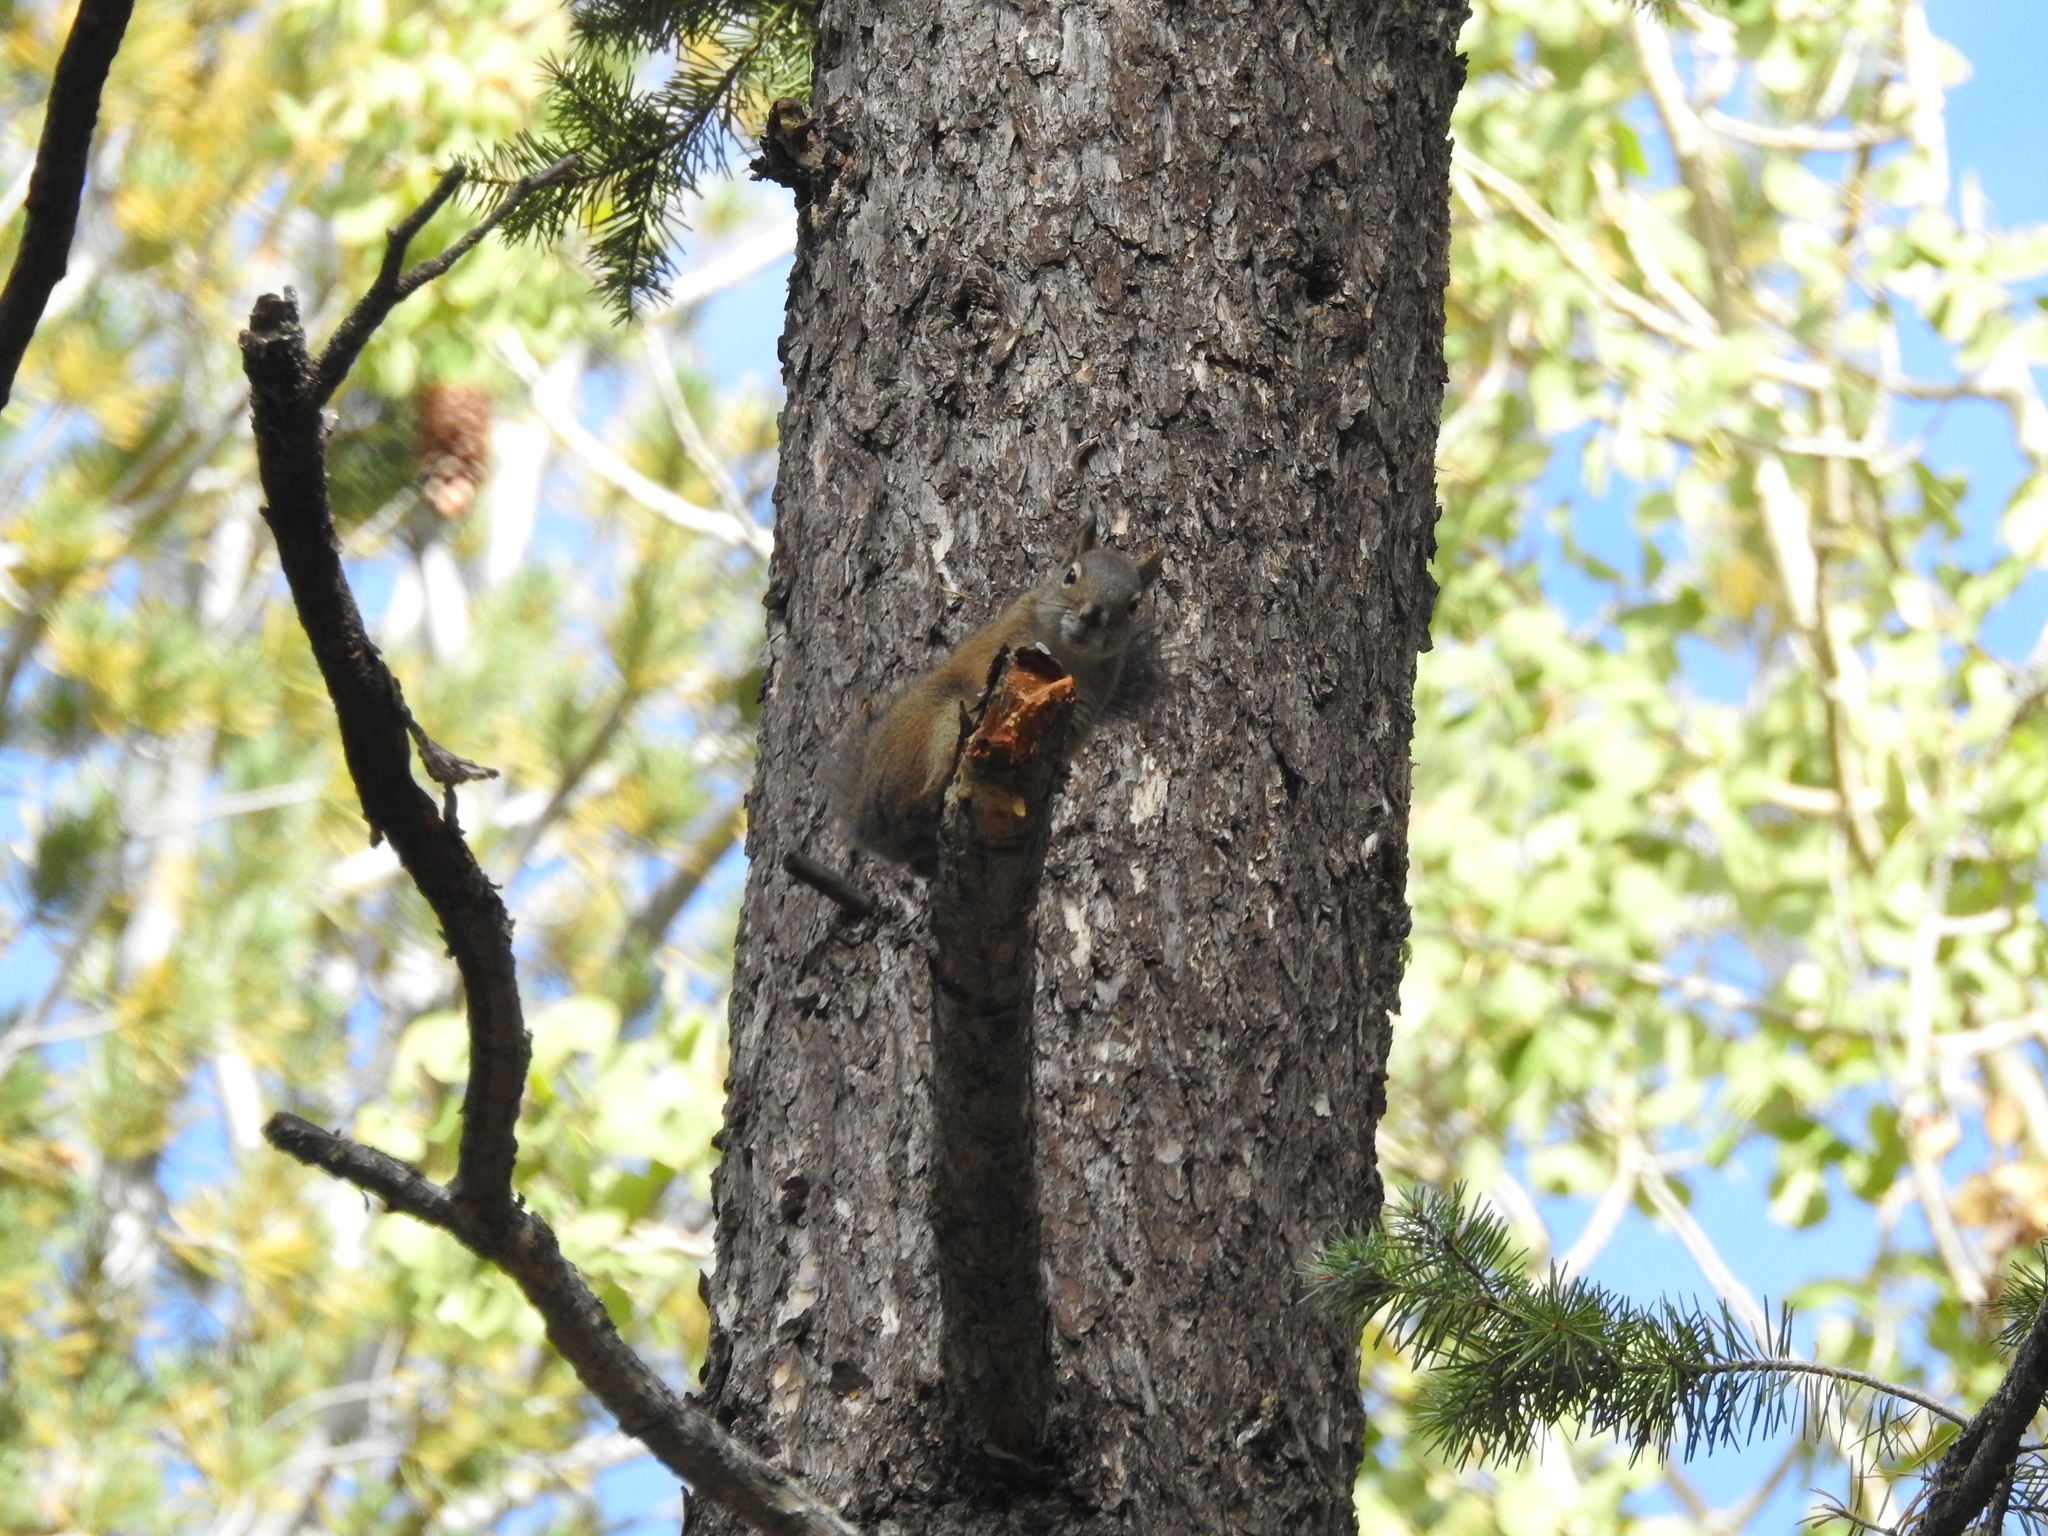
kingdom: Animalia
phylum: Chordata
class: Mammalia
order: Rodentia
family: Sciuridae
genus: Tamiasciurus
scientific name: Tamiasciurus hudsonicus
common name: Red squirrel
